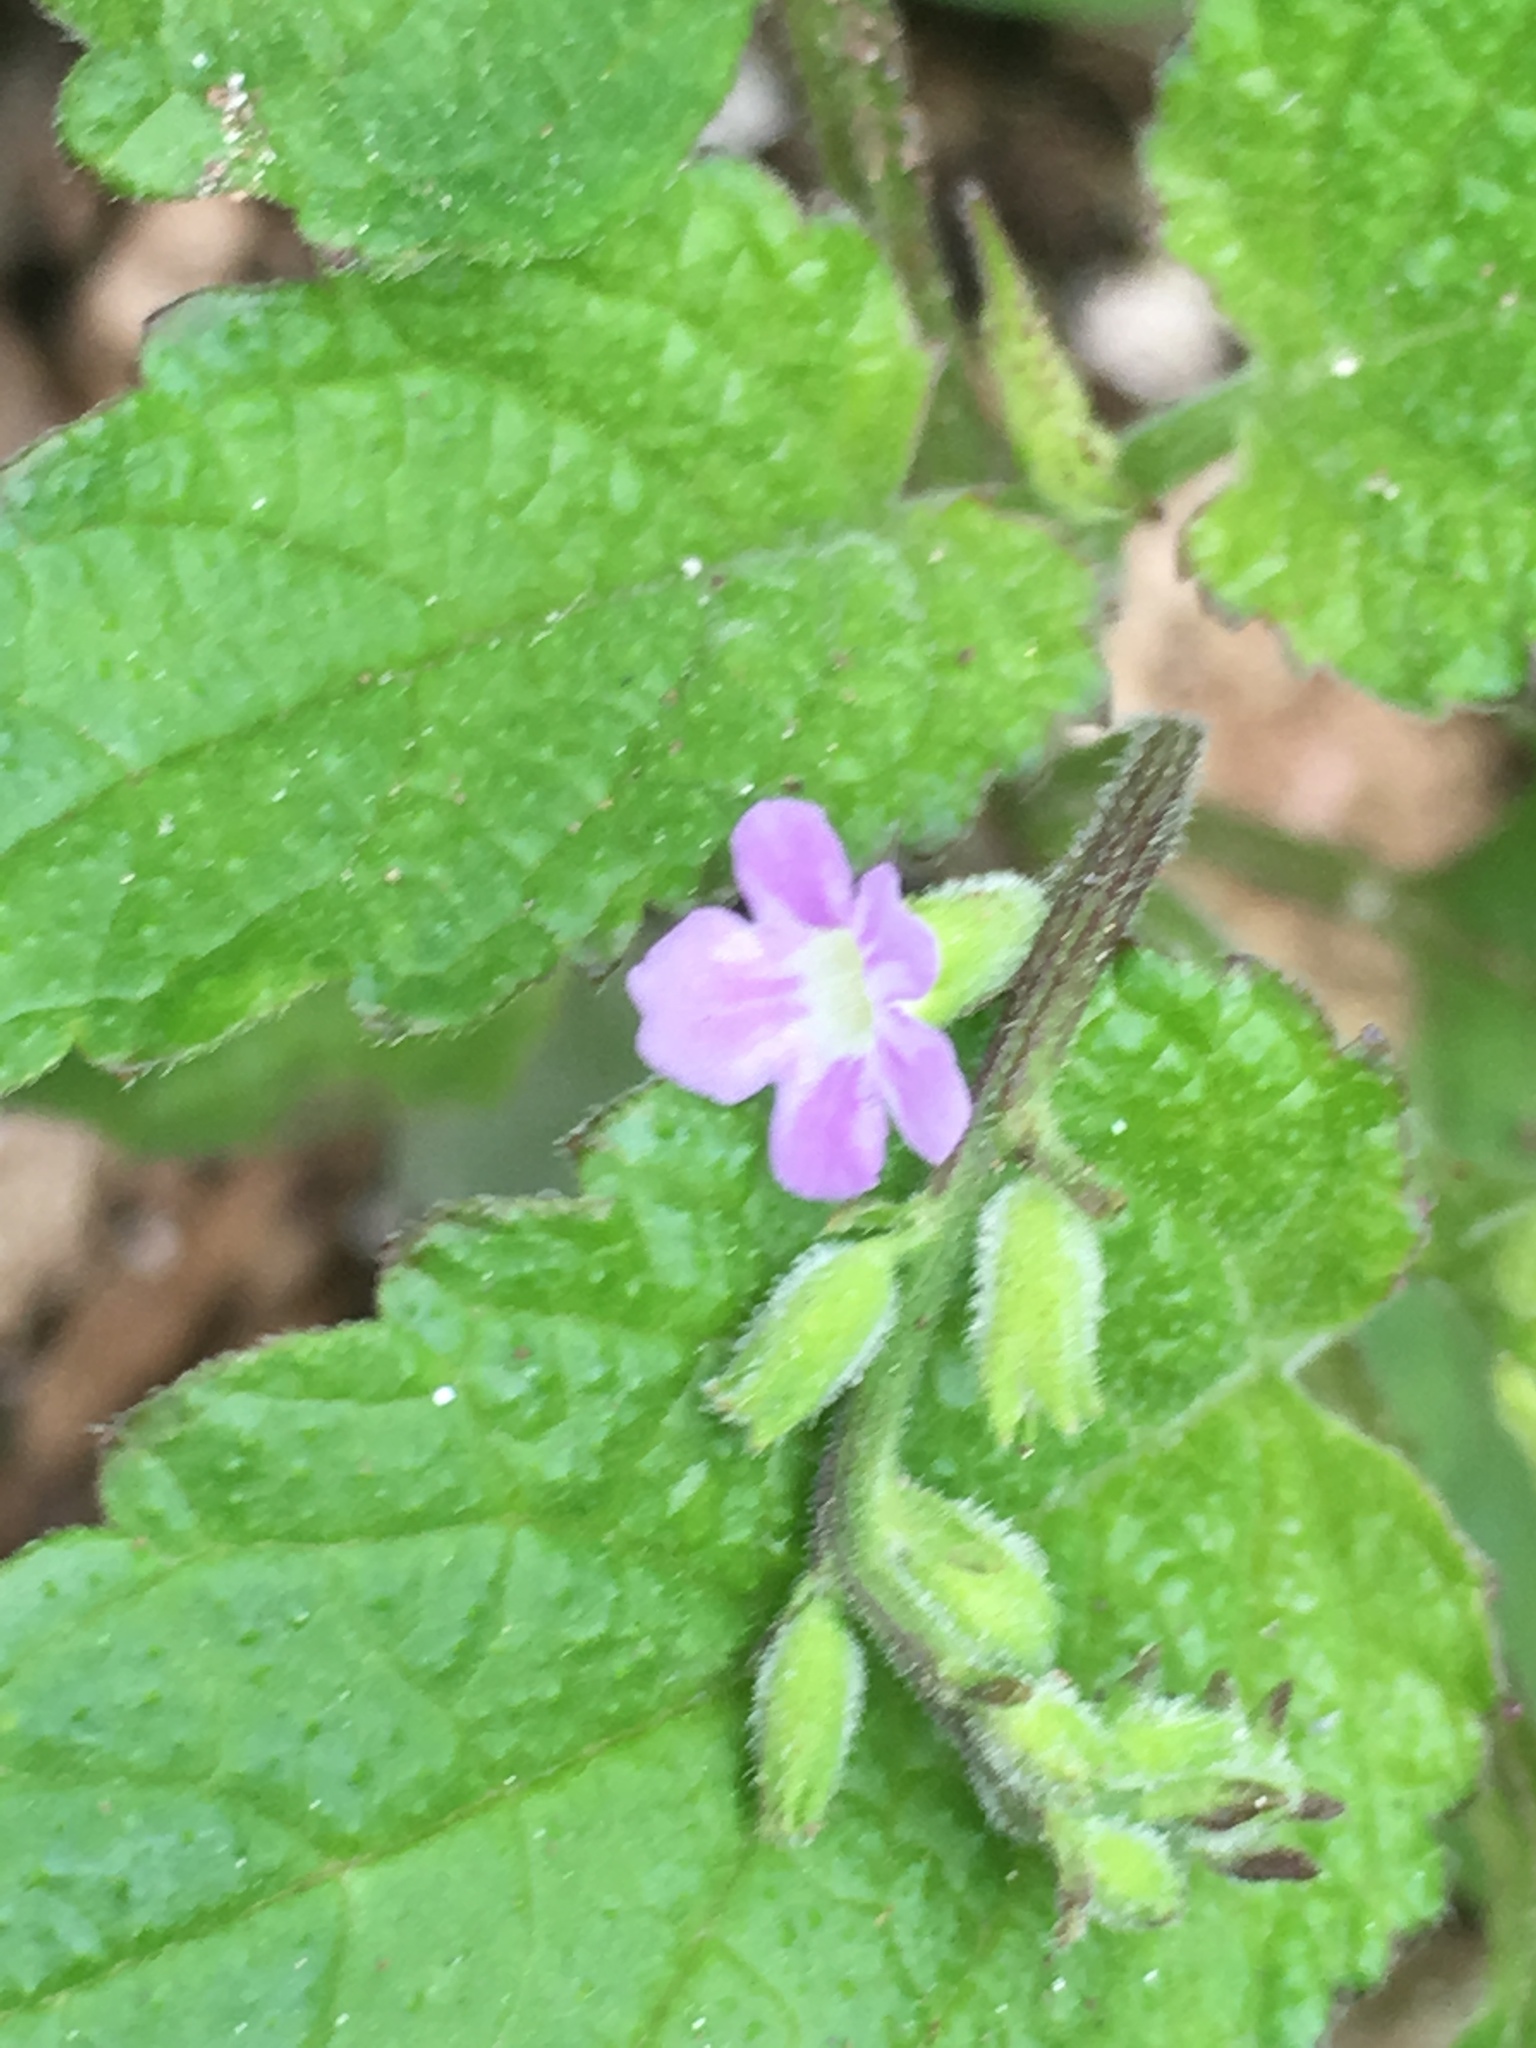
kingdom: Plantae
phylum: Tracheophyta
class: Magnoliopsida
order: Lamiales
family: Verbenaceae
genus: Priva
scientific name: Priva lappulacea
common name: Fasten-'pon-coat
